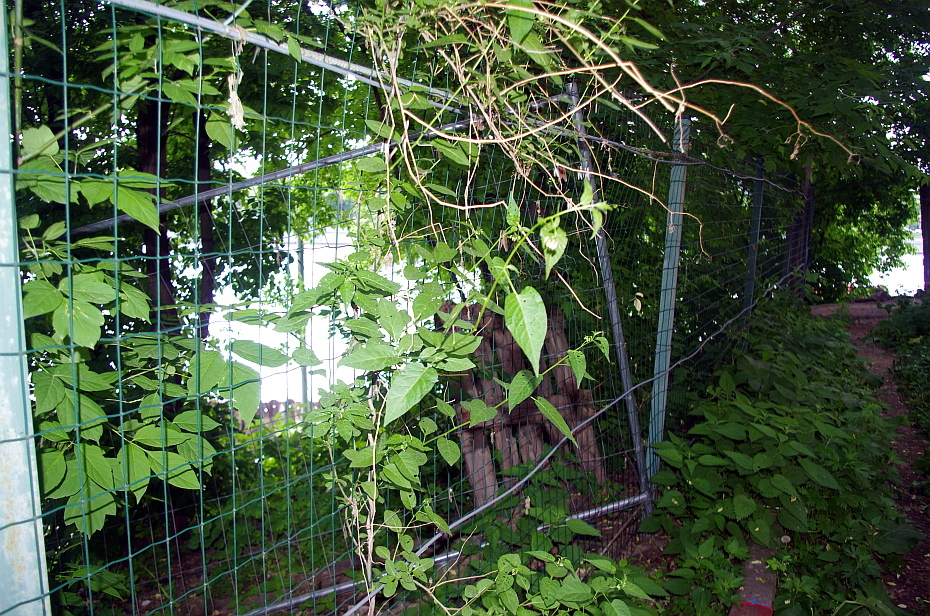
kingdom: Plantae
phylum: Tracheophyta
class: Magnoliopsida
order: Solanales
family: Solanaceae
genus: Solanum
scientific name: Solanum dulcamara
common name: Climbing nightshade
